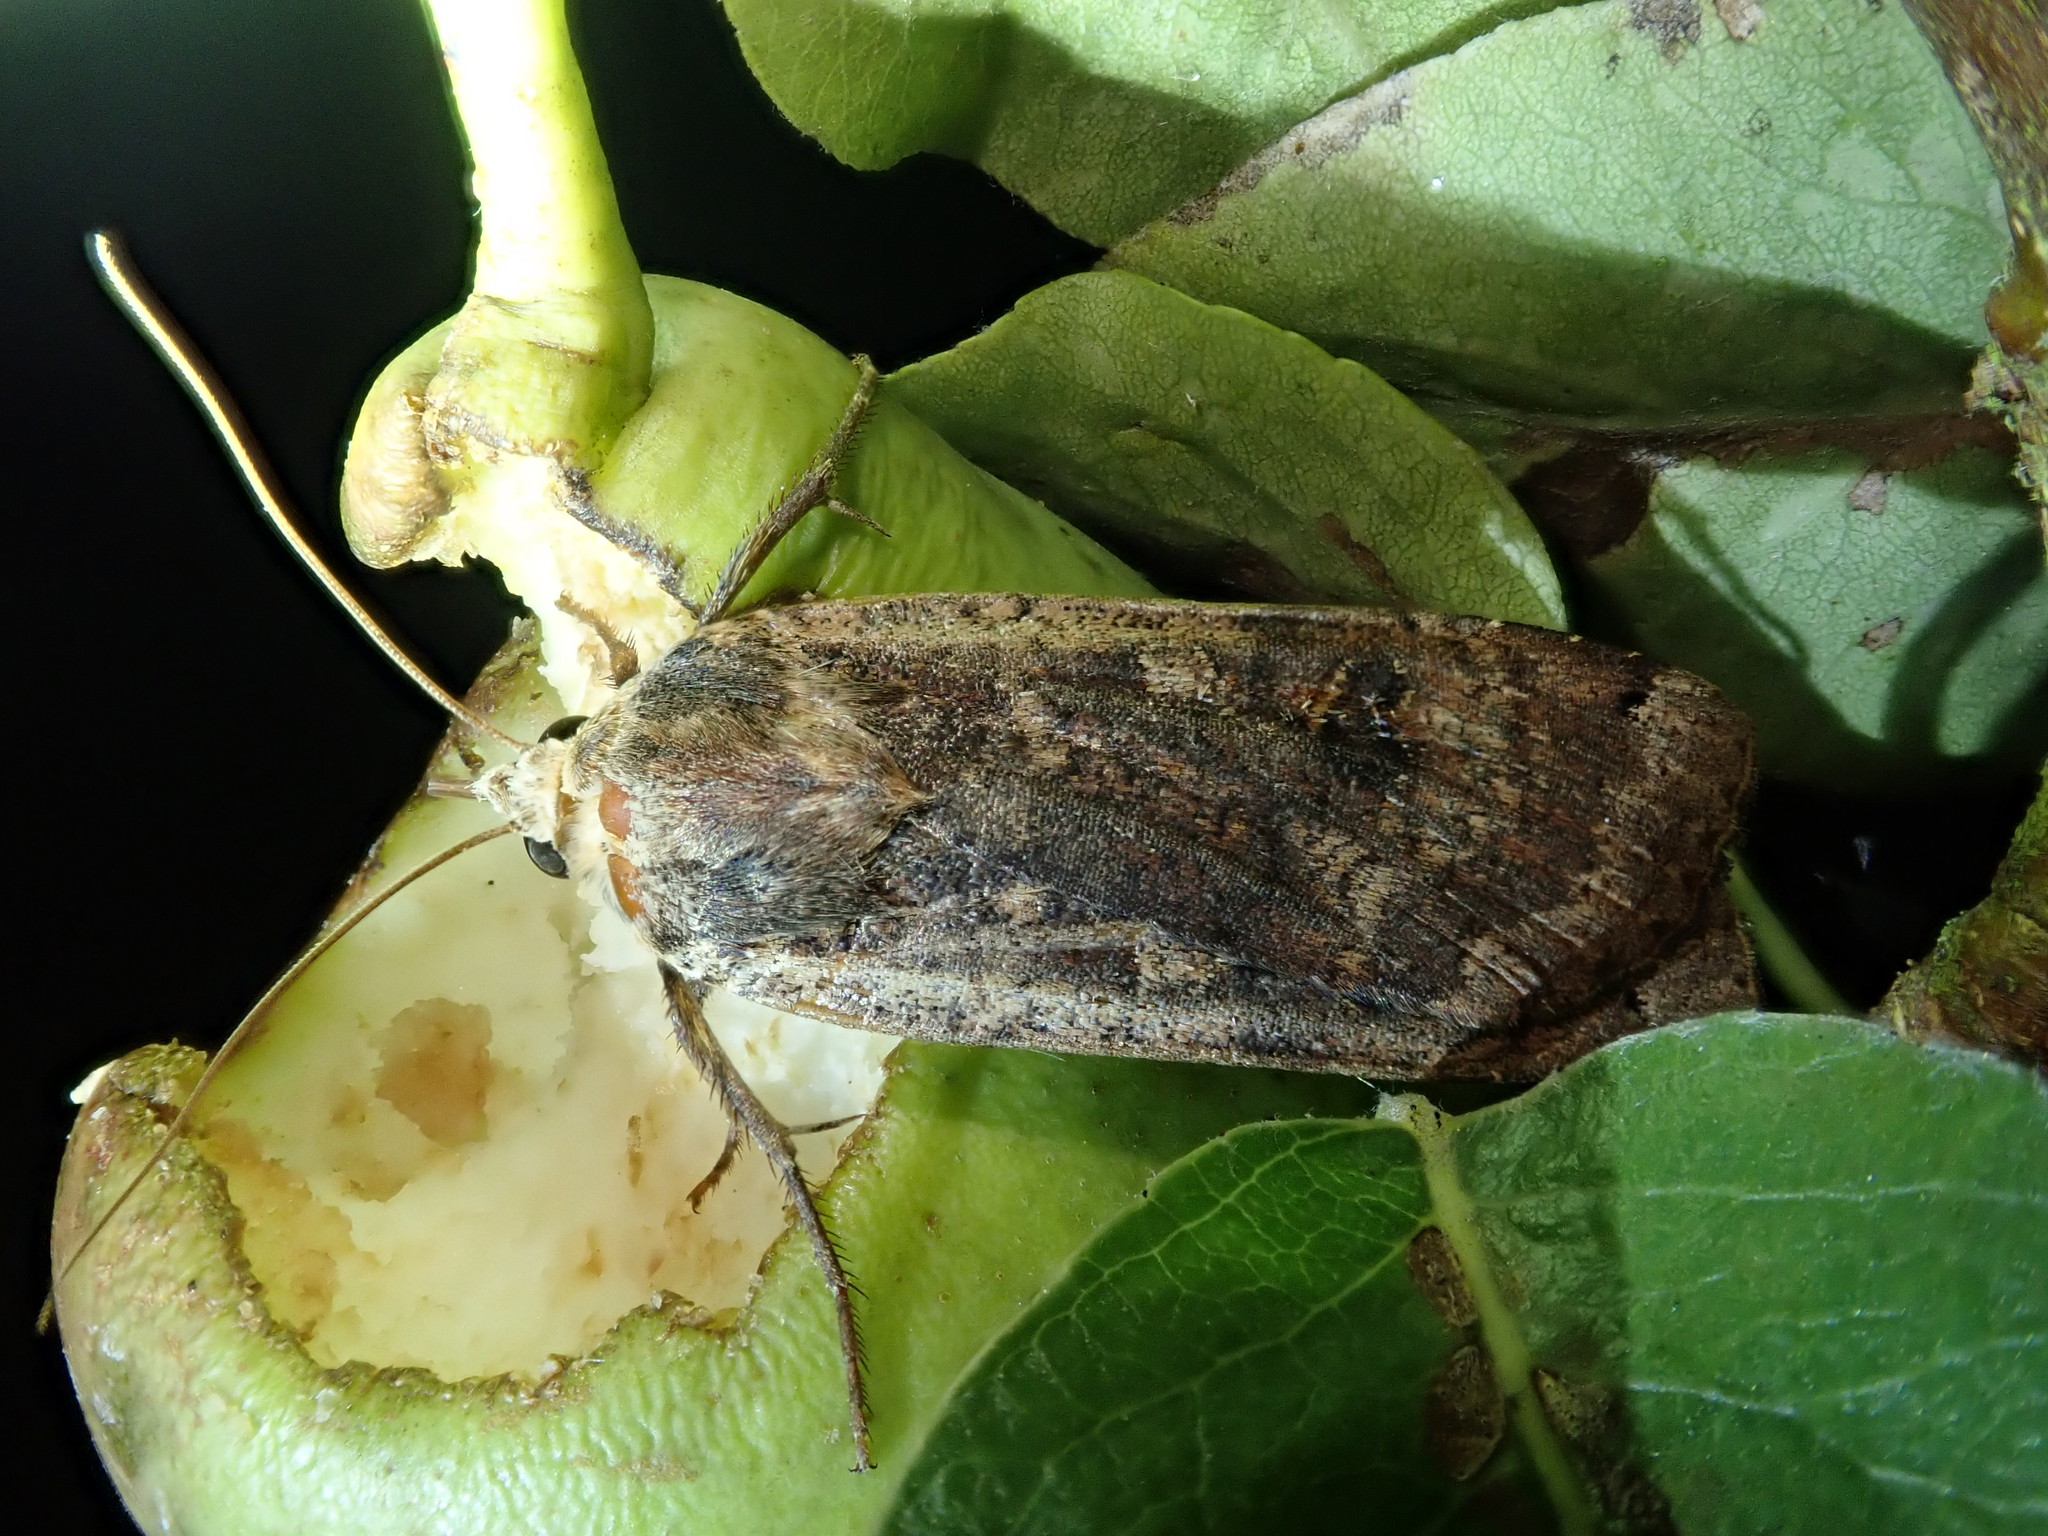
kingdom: Animalia
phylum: Arthropoda
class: Insecta
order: Lepidoptera
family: Noctuidae
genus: Noctua
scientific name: Noctua pronuba
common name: Large yellow underwing
